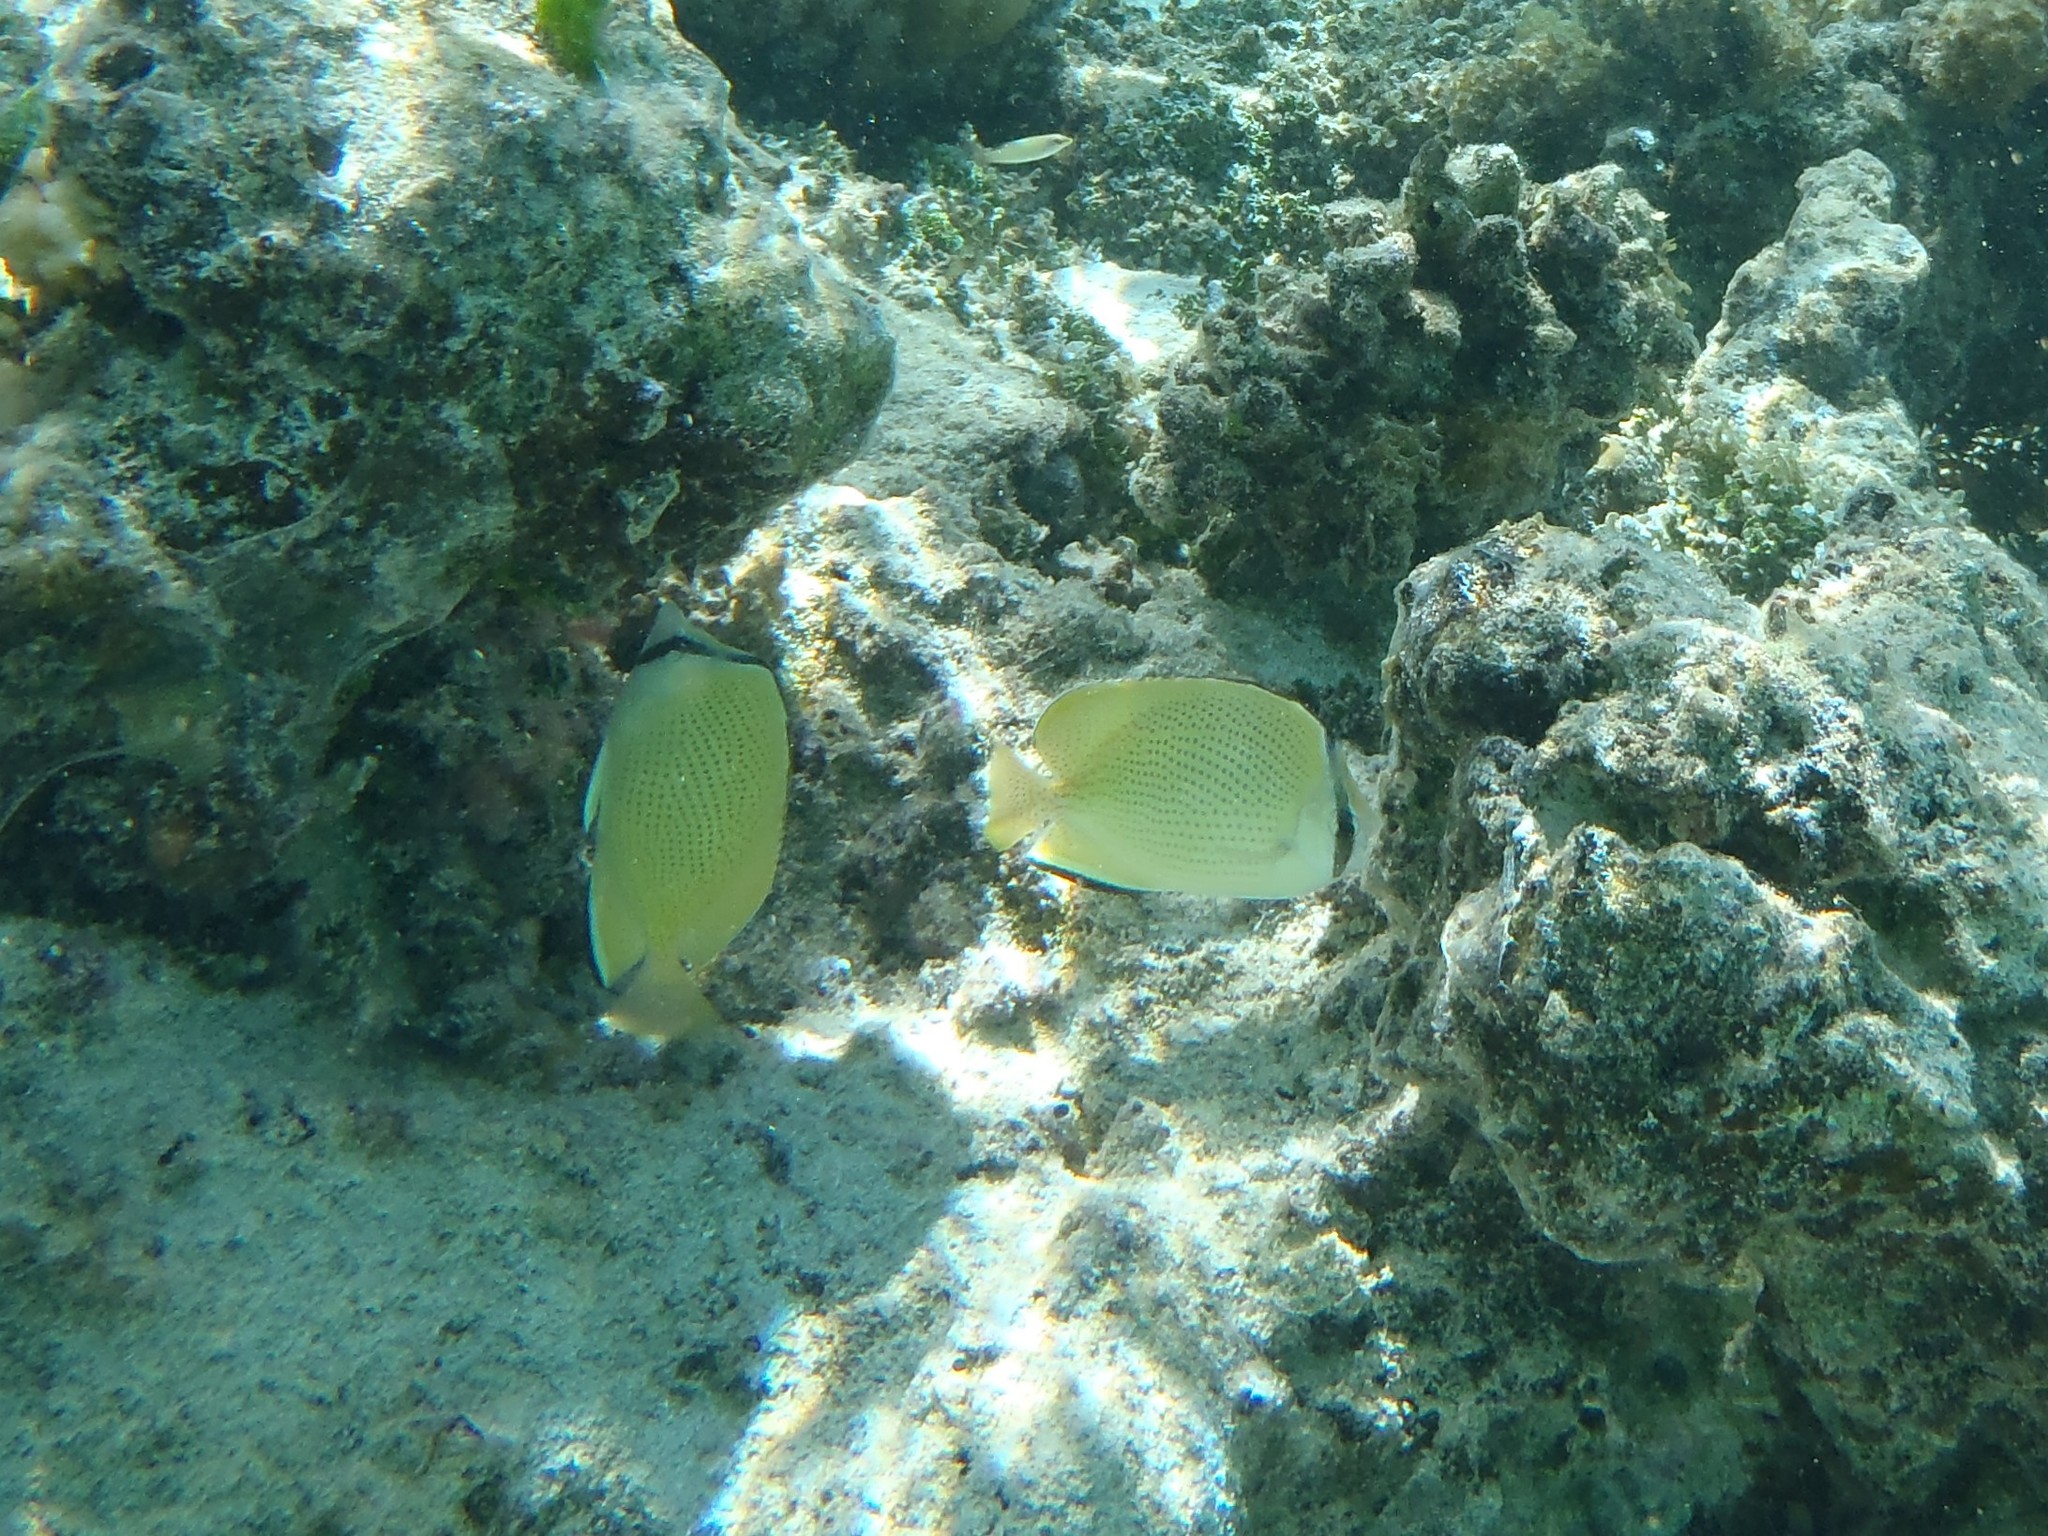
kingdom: Animalia
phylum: Chordata
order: Perciformes
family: Chaetodontidae
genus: Chaetodon
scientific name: Chaetodon citrinellus
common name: Speckled butterflyfish
